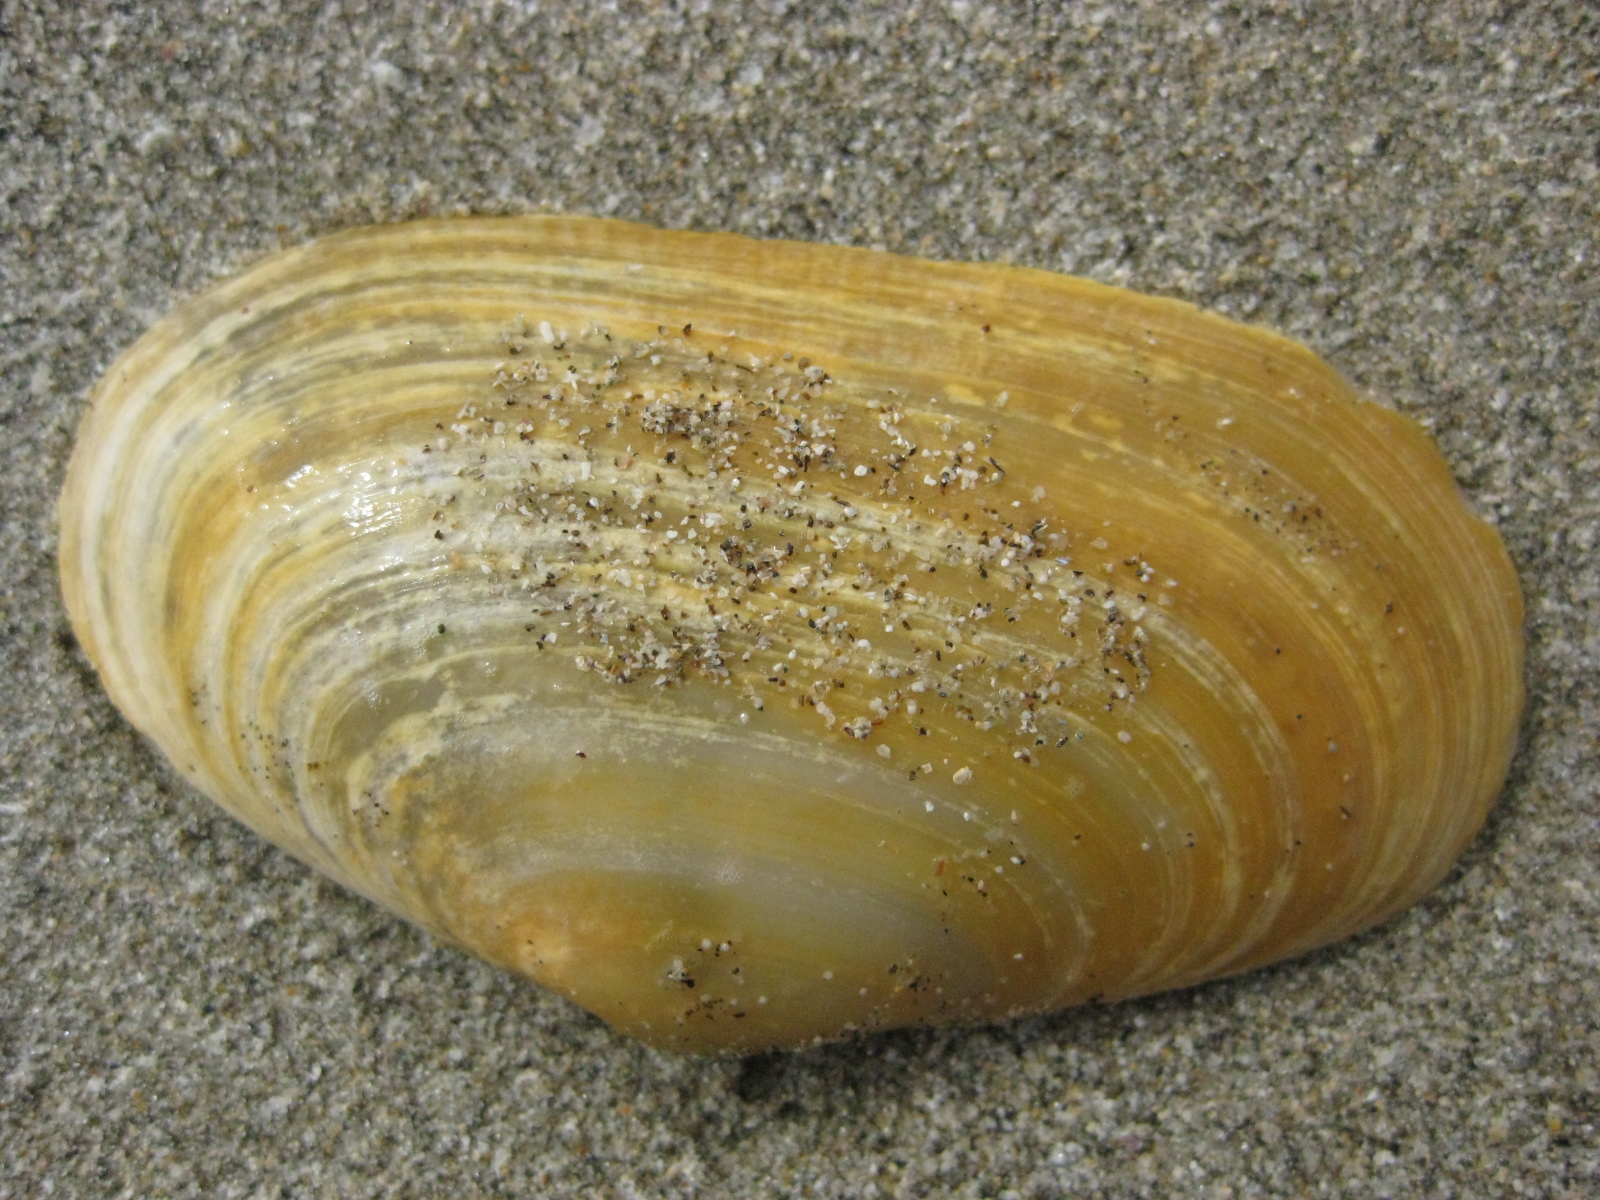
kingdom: Animalia
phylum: Mollusca
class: Bivalvia
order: Venerida
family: Mesodesmatidae
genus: Paphies
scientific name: Paphies australis
